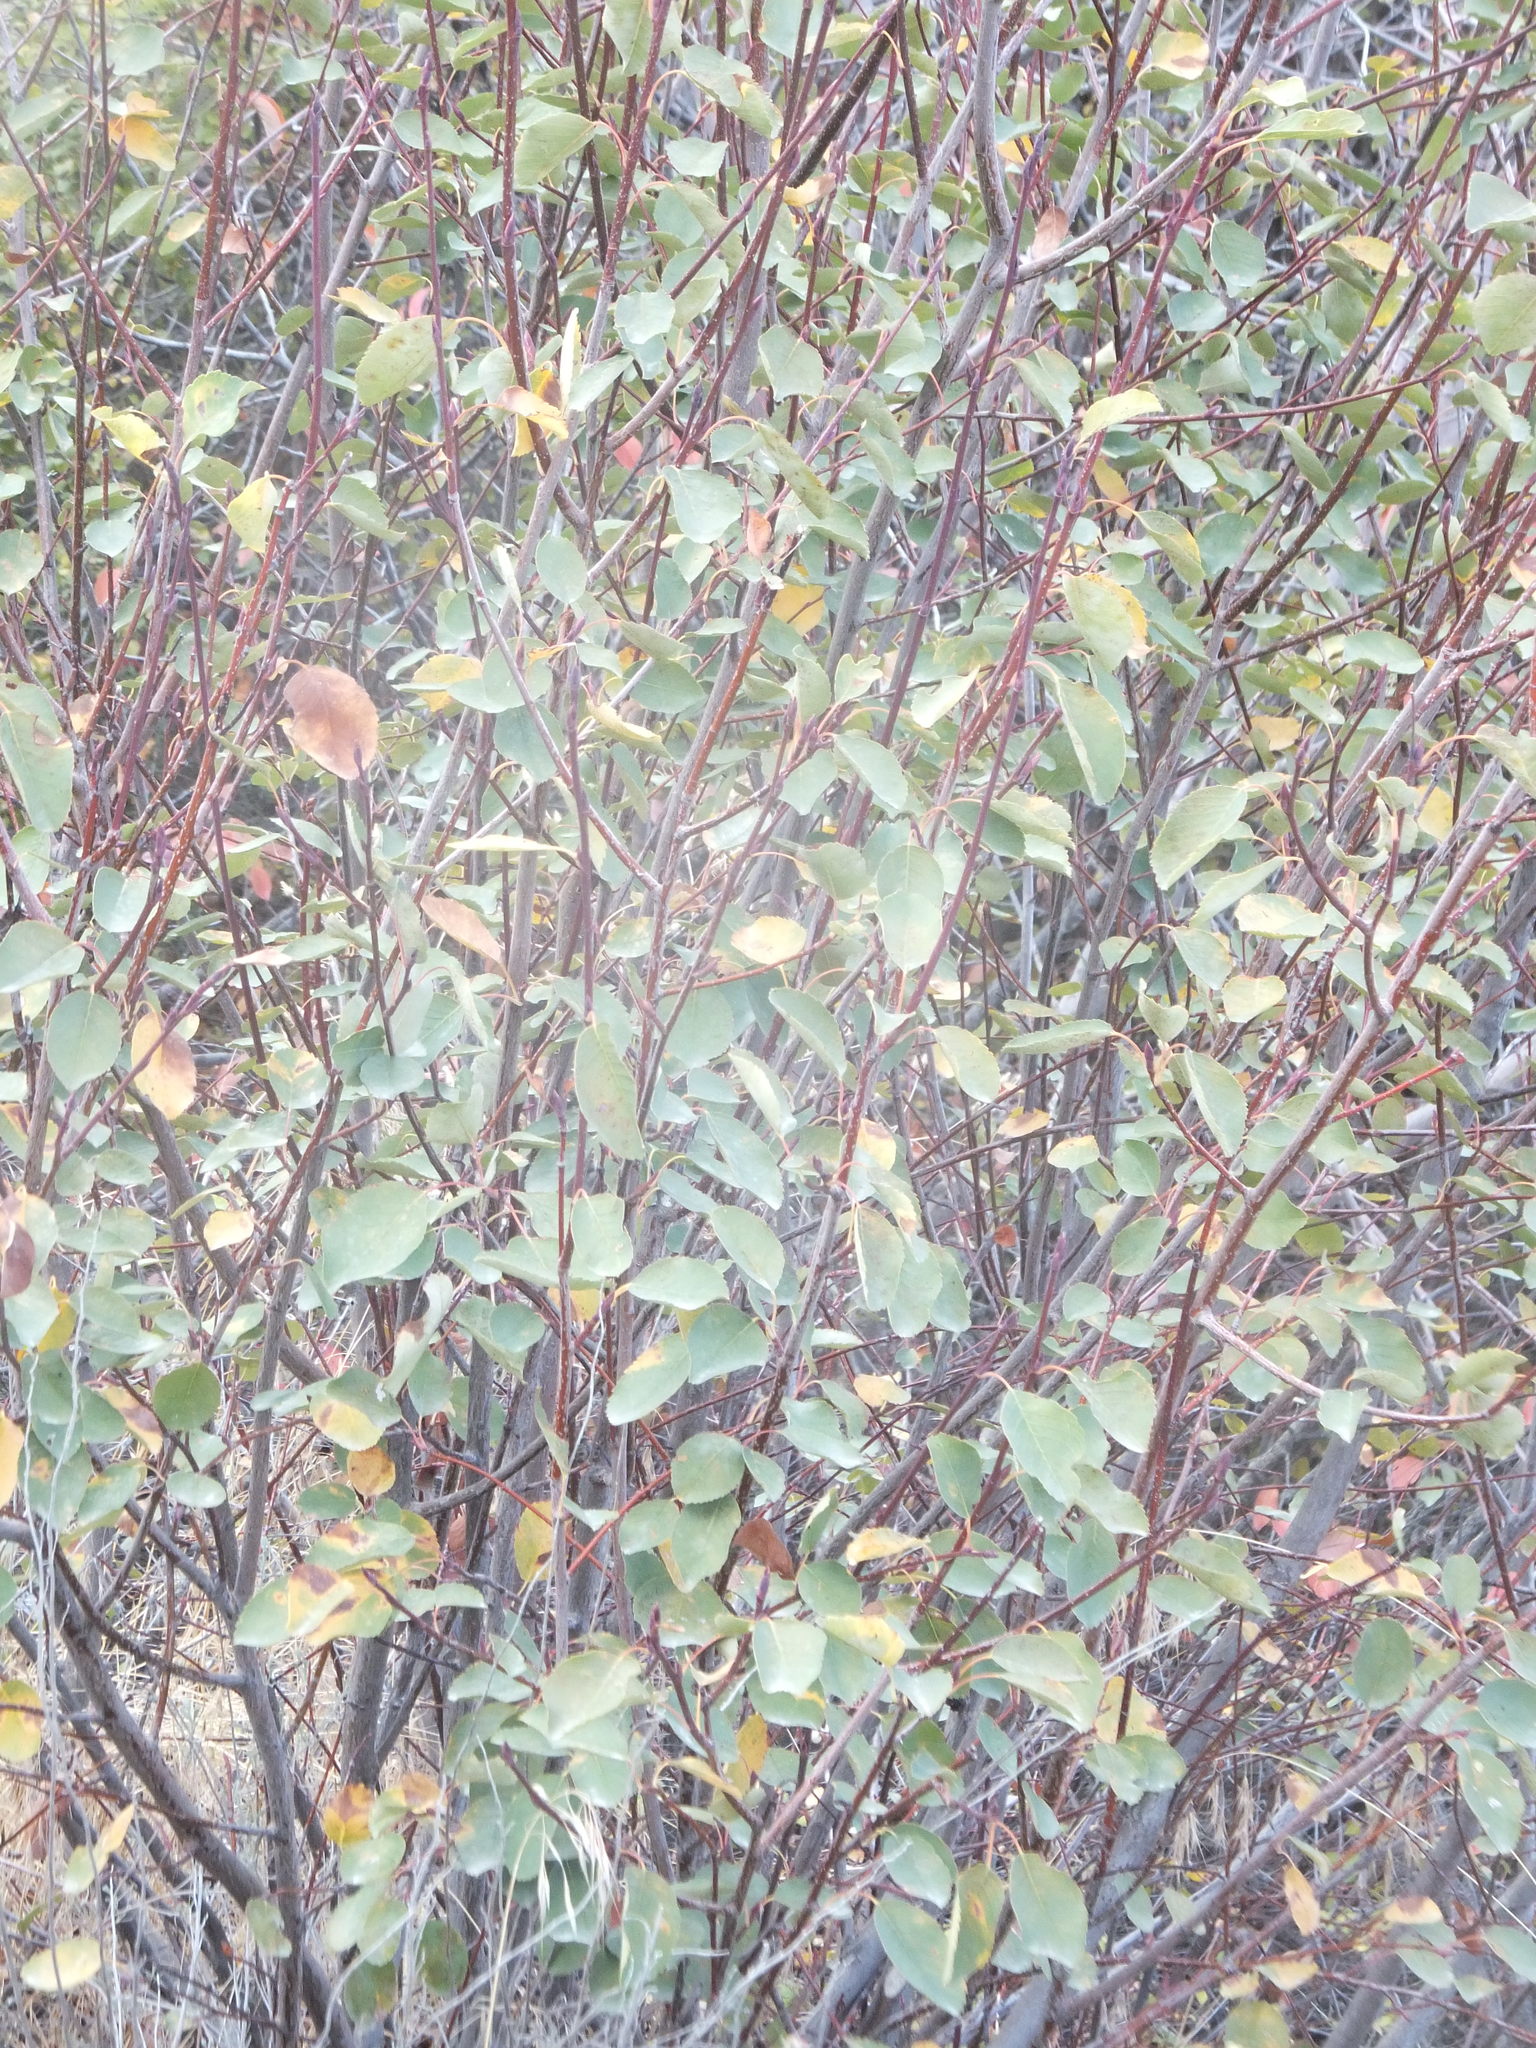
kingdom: Plantae
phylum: Tracheophyta
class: Magnoliopsida
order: Rosales
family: Rosaceae
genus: Amelanchier
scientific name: Amelanchier alnifolia
